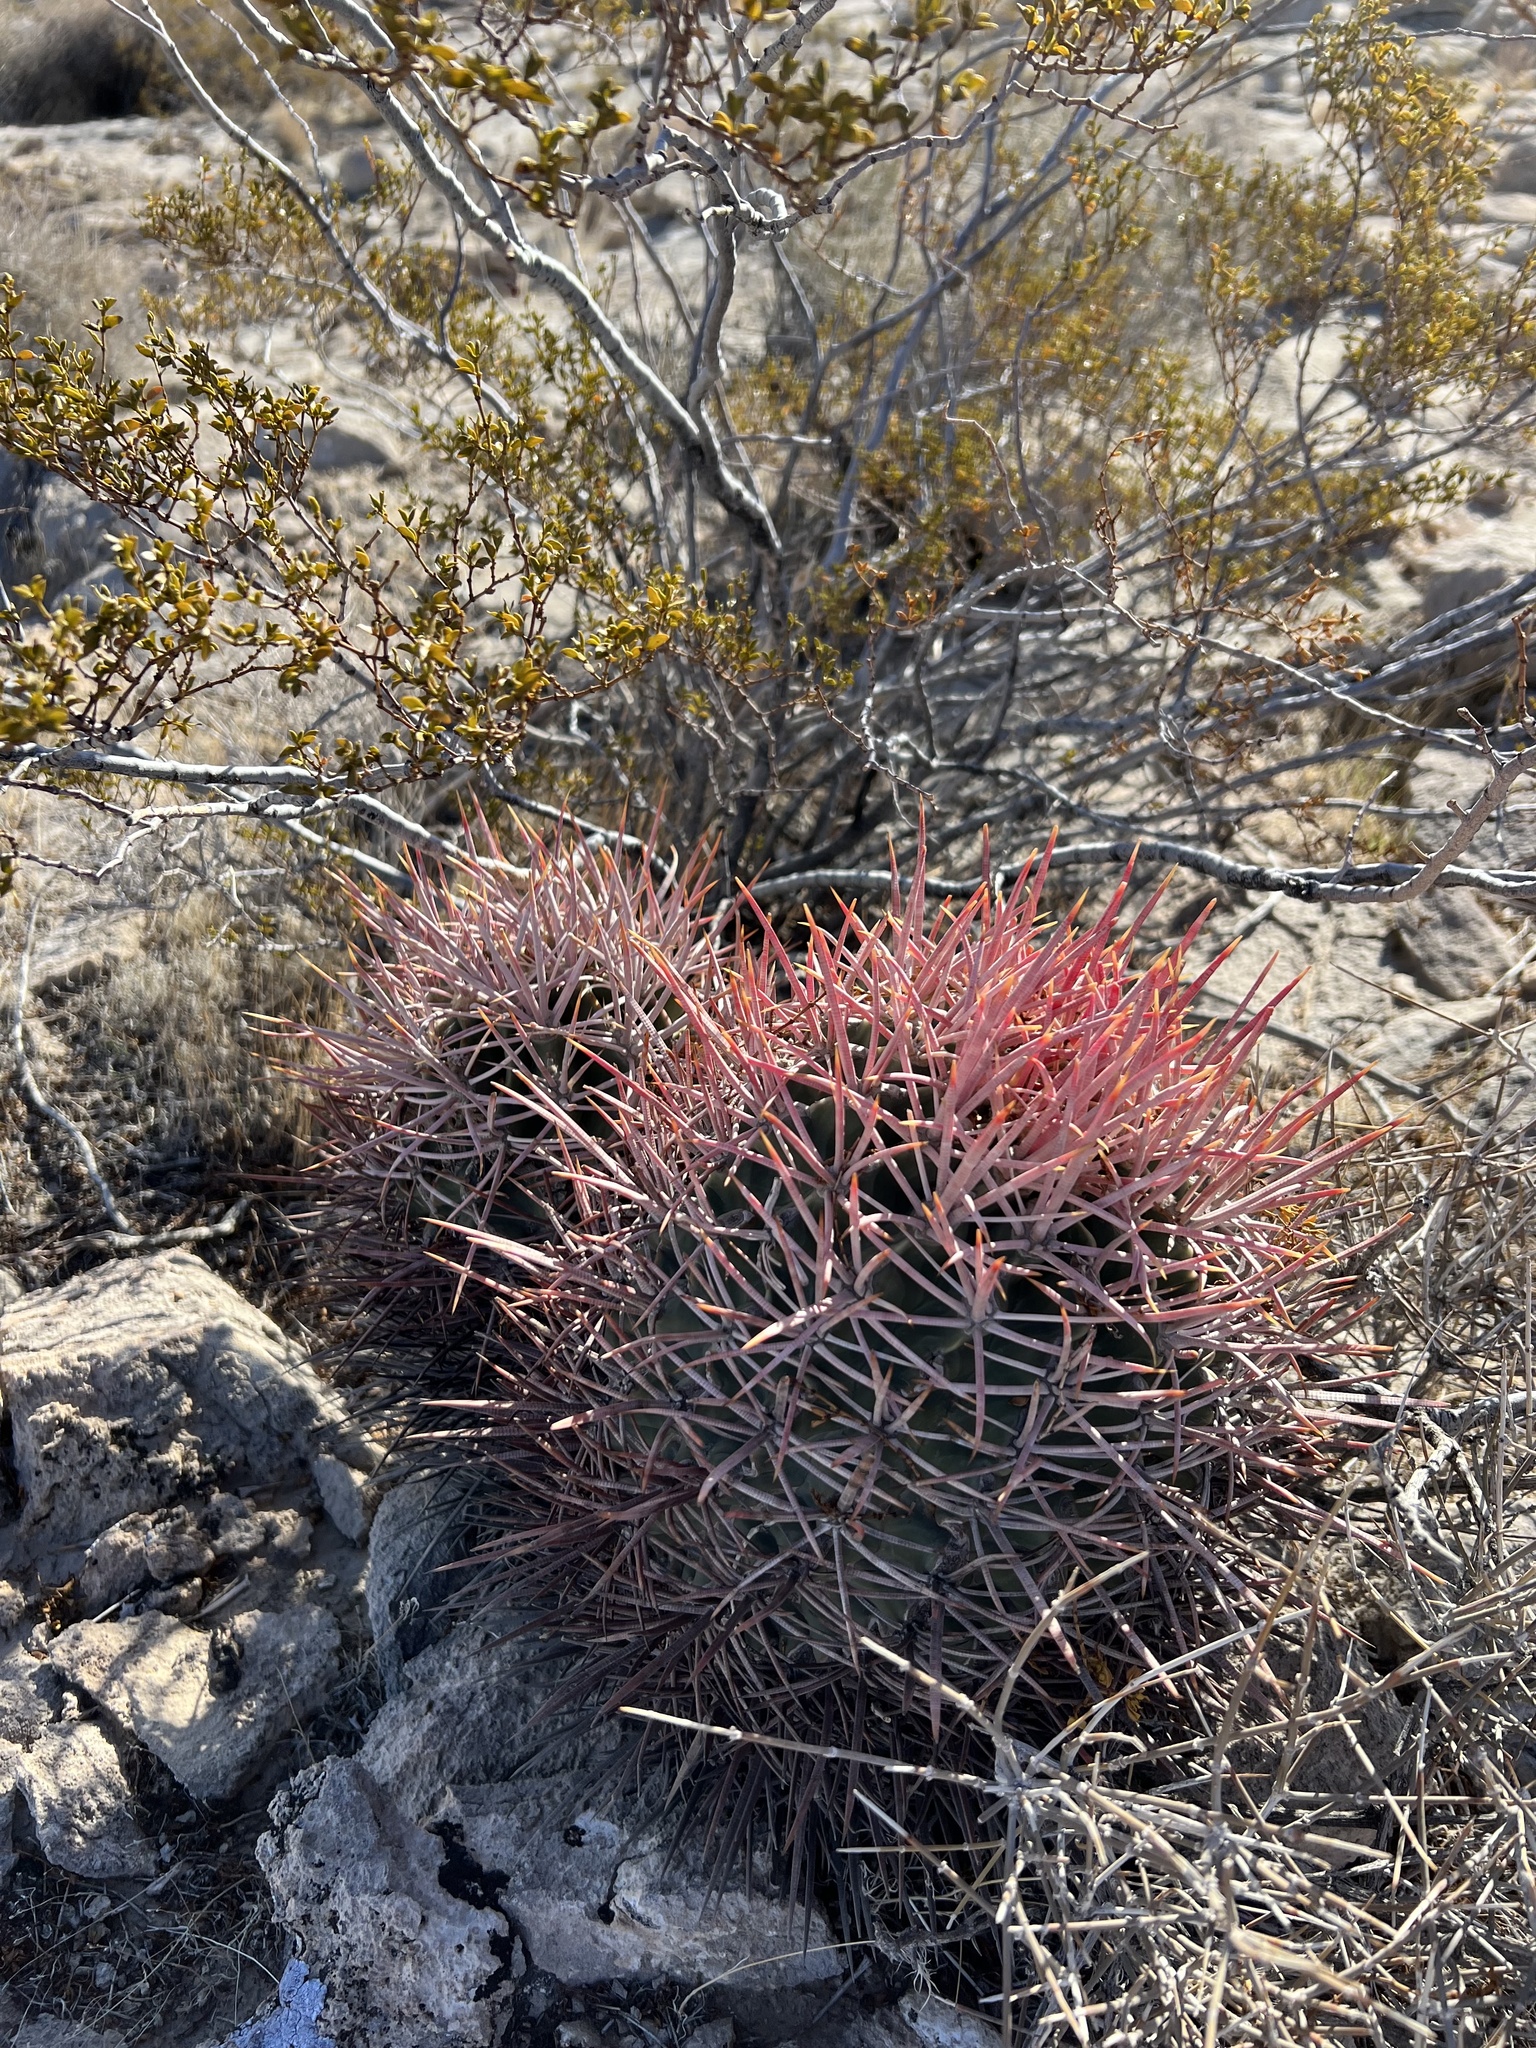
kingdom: Plantae
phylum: Tracheophyta
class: Magnoliopsida
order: Caryophyllales
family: Cactaceae
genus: Echinocactus
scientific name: Echinocactus polycephalus
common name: Cottontop cactus
